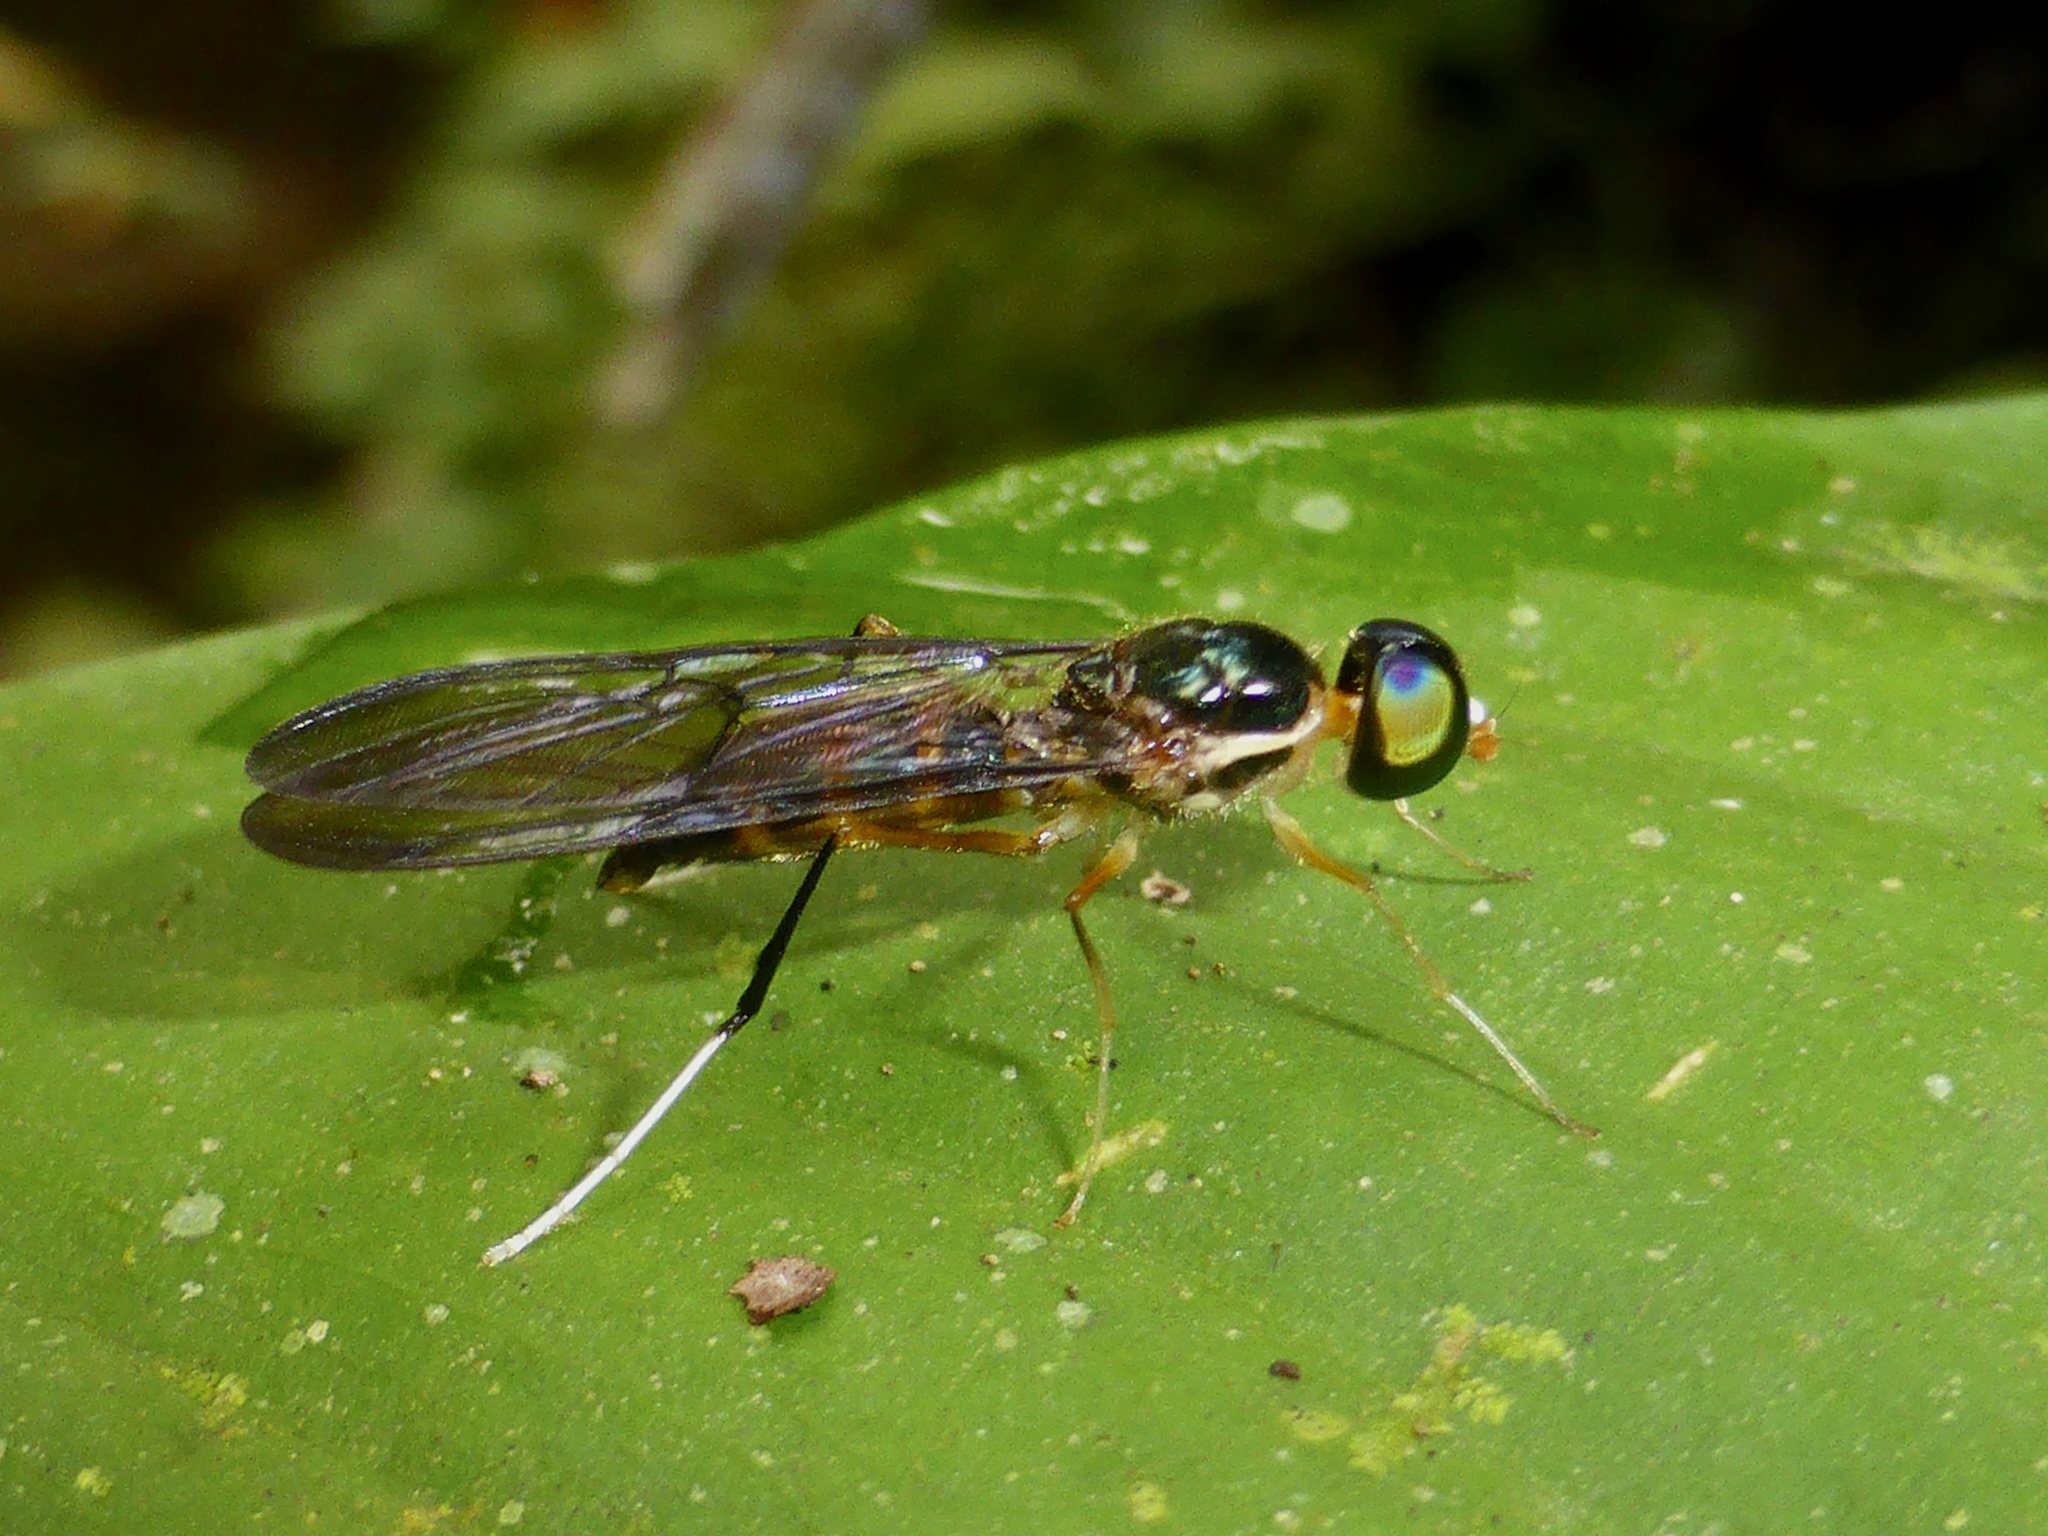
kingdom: Animalia
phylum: Arthropoda
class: Insecta
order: Diptera
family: Stratiomyidae
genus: Ptecticus
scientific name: Ptecticus longipennis
